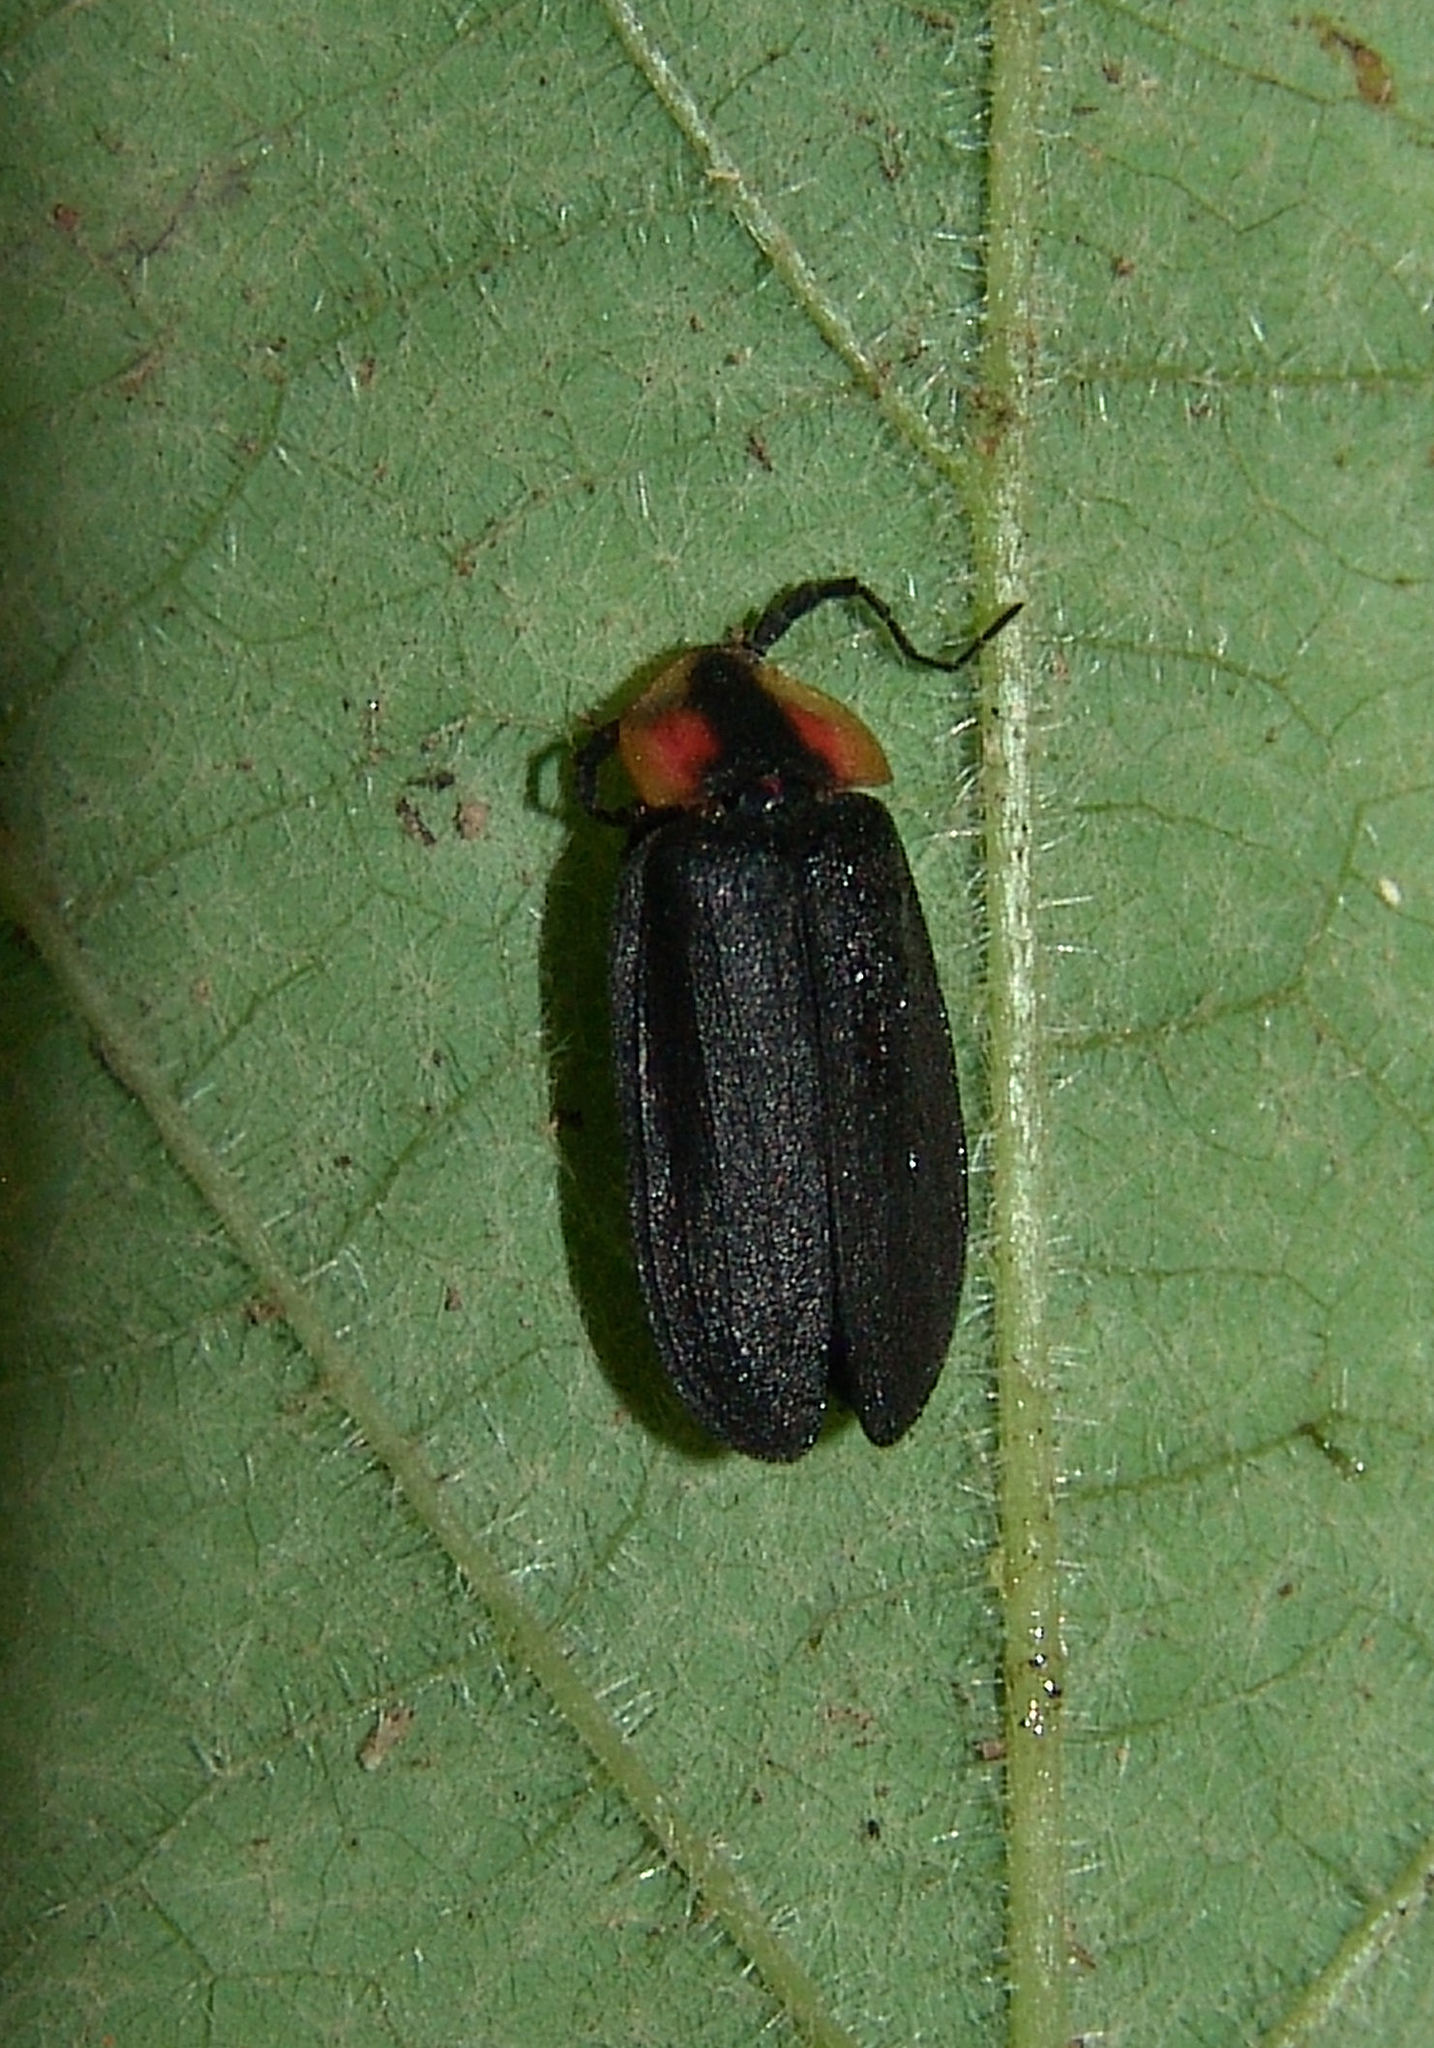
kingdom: Animalia
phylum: Arthropoda
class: Insecta
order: Coleoptera
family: Lampyridae
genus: Lucidota
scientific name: Lucidota atra
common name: Black firefly
